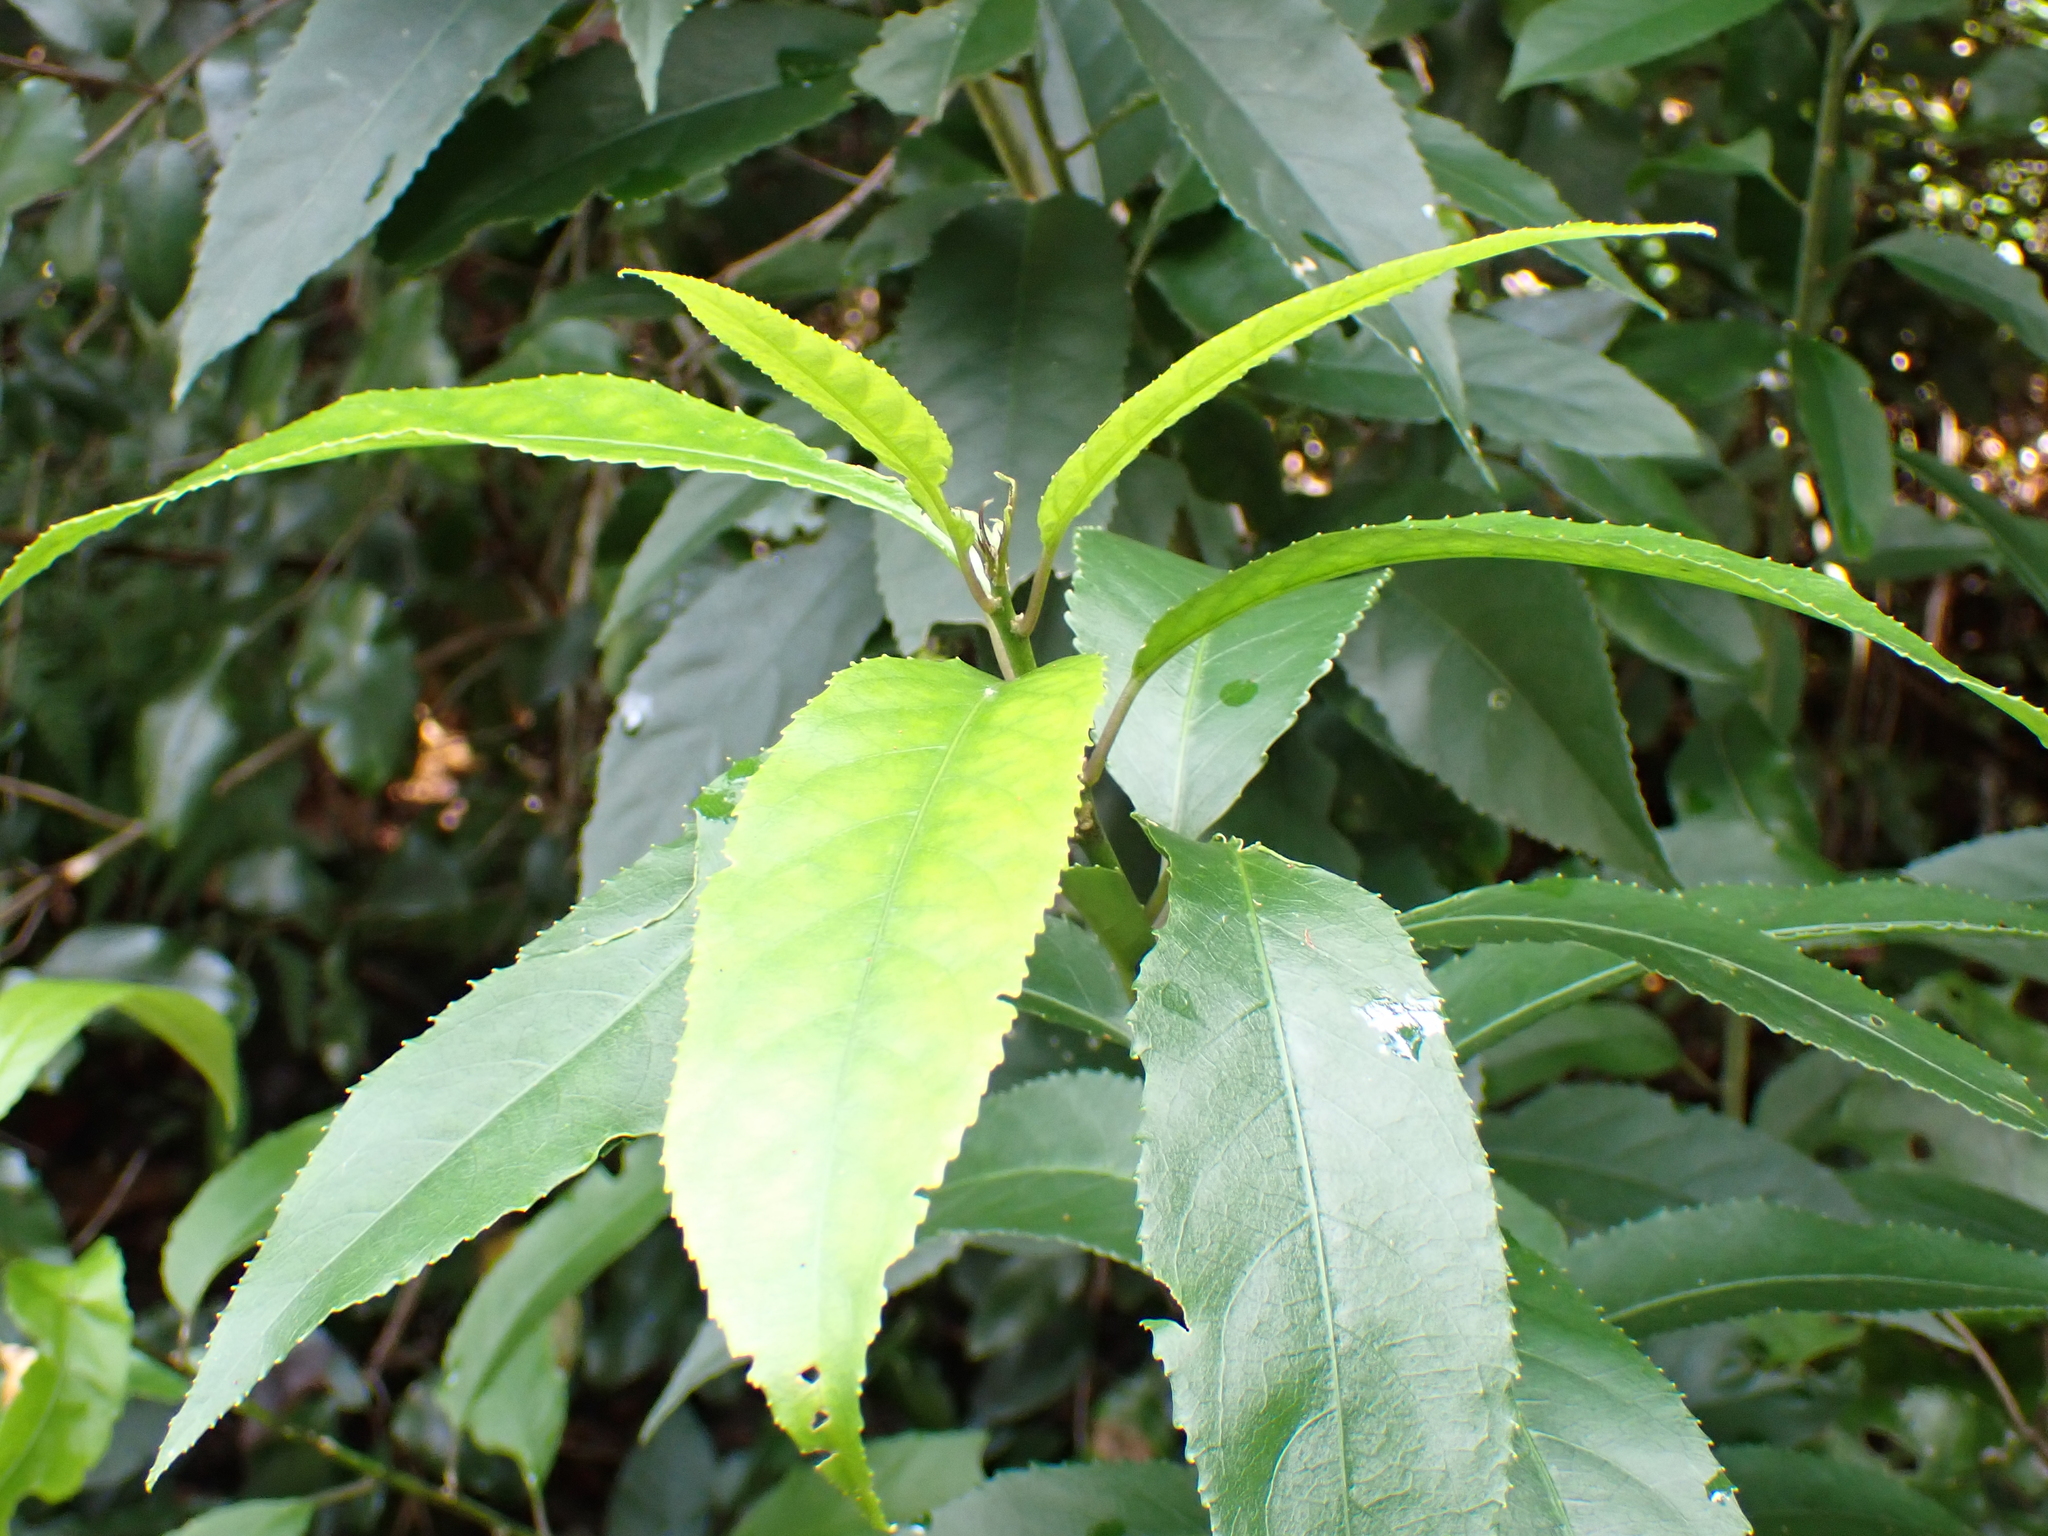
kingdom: Plantae
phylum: Tracheophyta
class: Magnoliopsida
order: Malpighiales
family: Violaceae
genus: Melicytus
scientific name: Melicytus ramiflorus
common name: Mahoe
